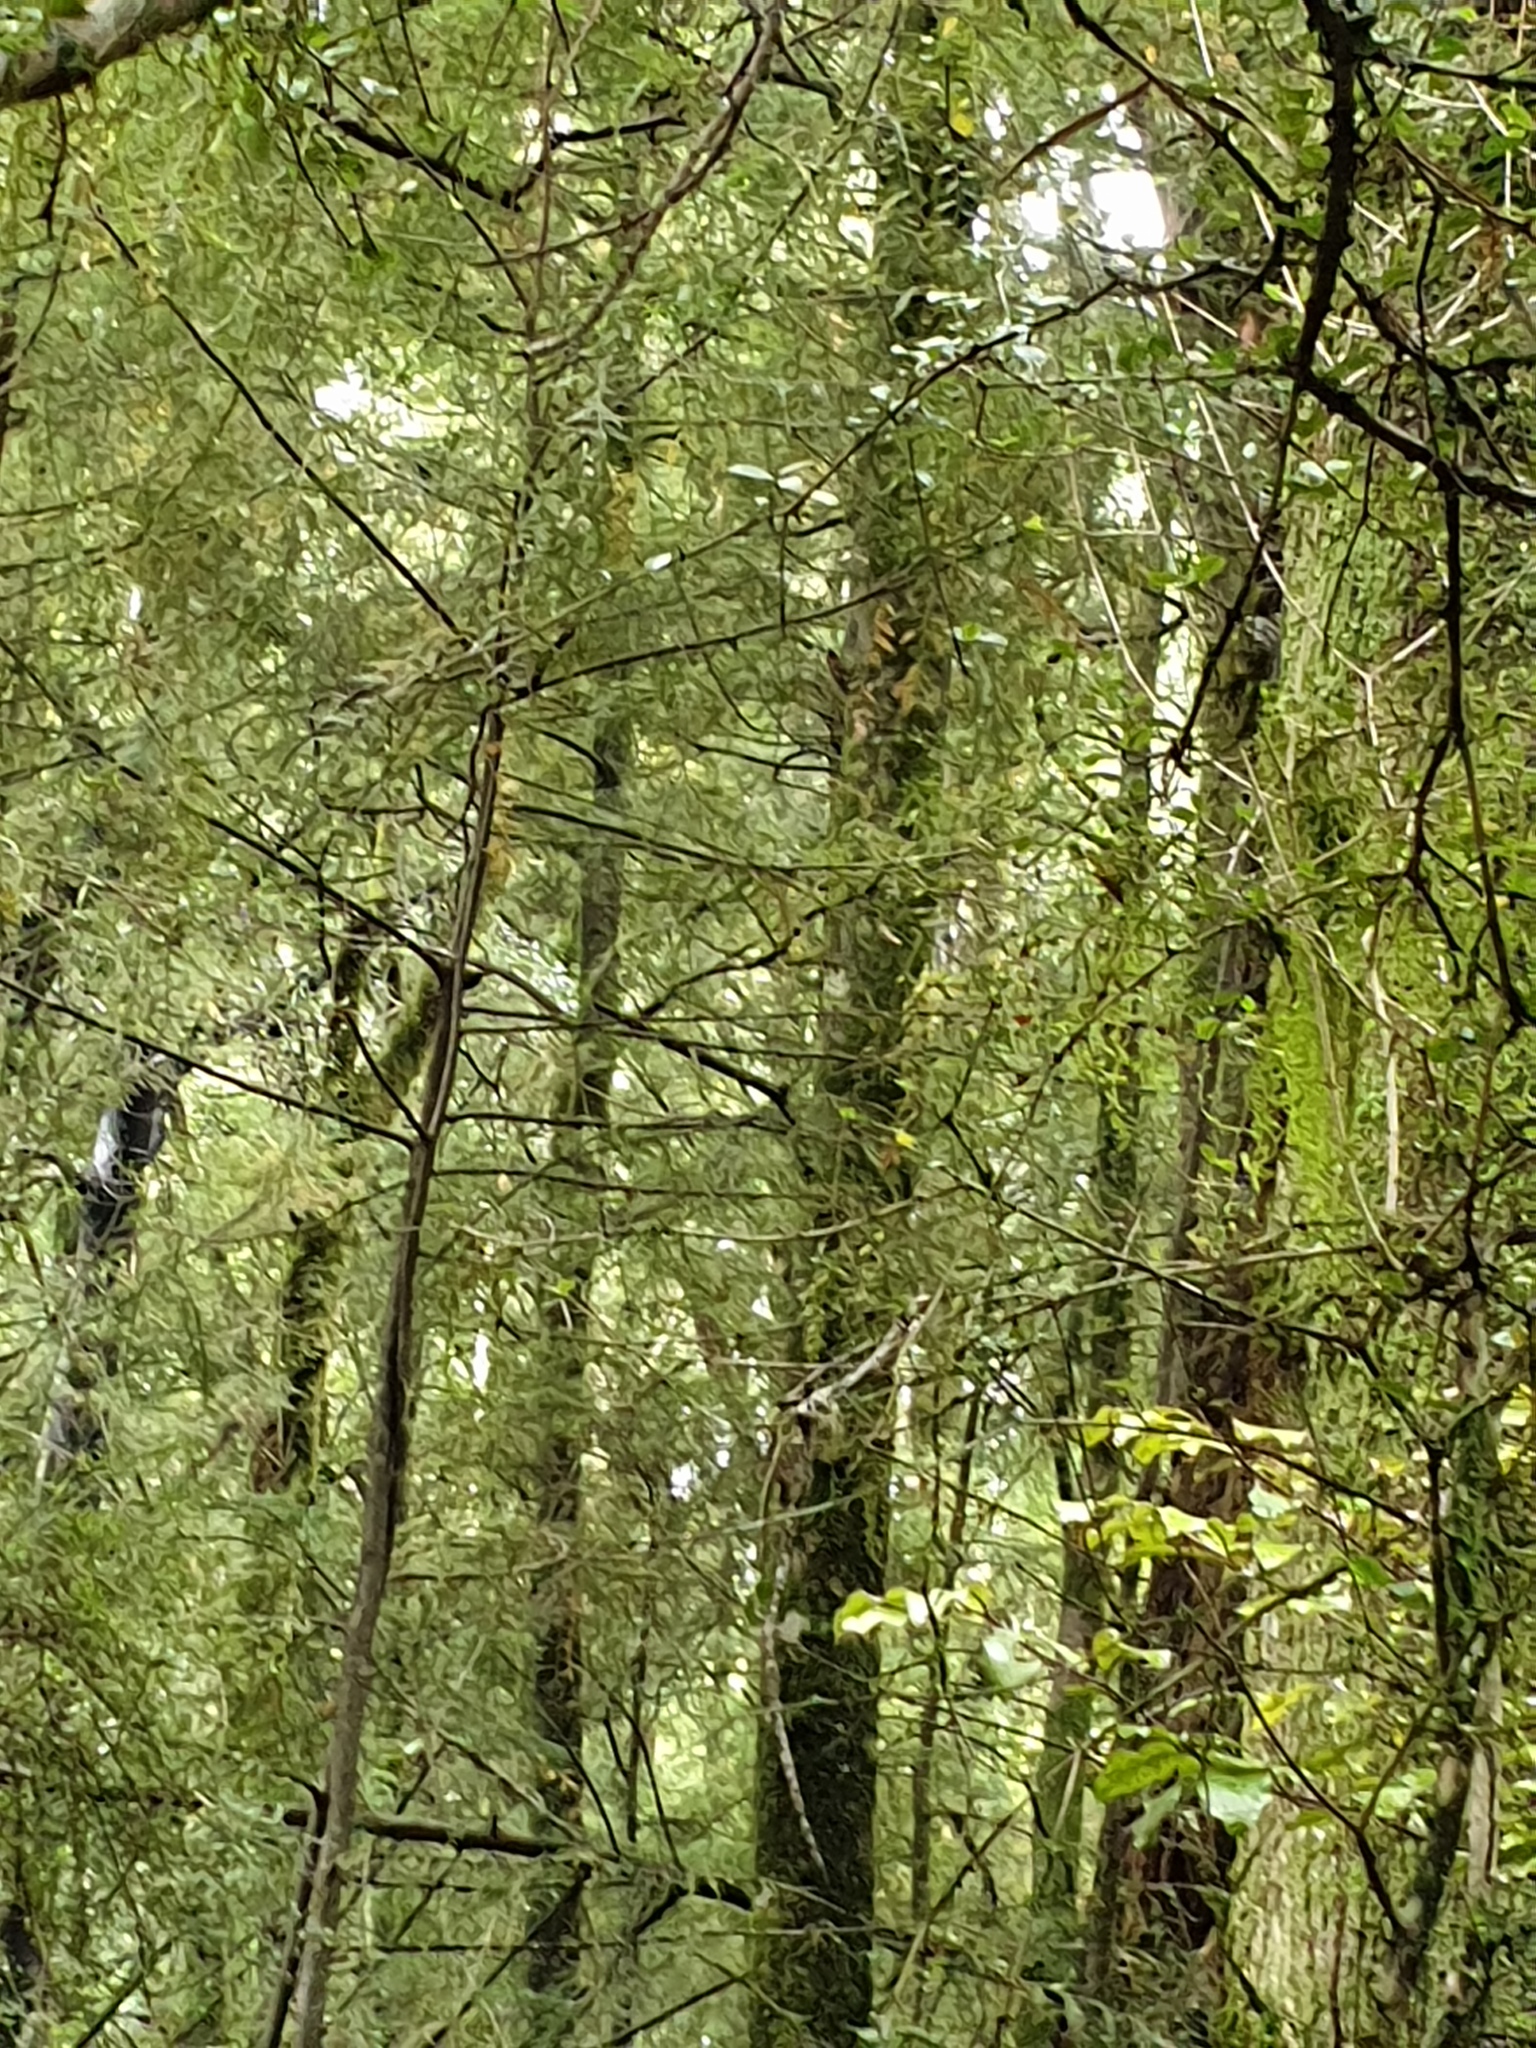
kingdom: Animalia
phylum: Chordata
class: Aves
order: Passeriformes
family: Meliphagidae
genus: Anthornis
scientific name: Anthornis melanura
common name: New zealand bellbird
